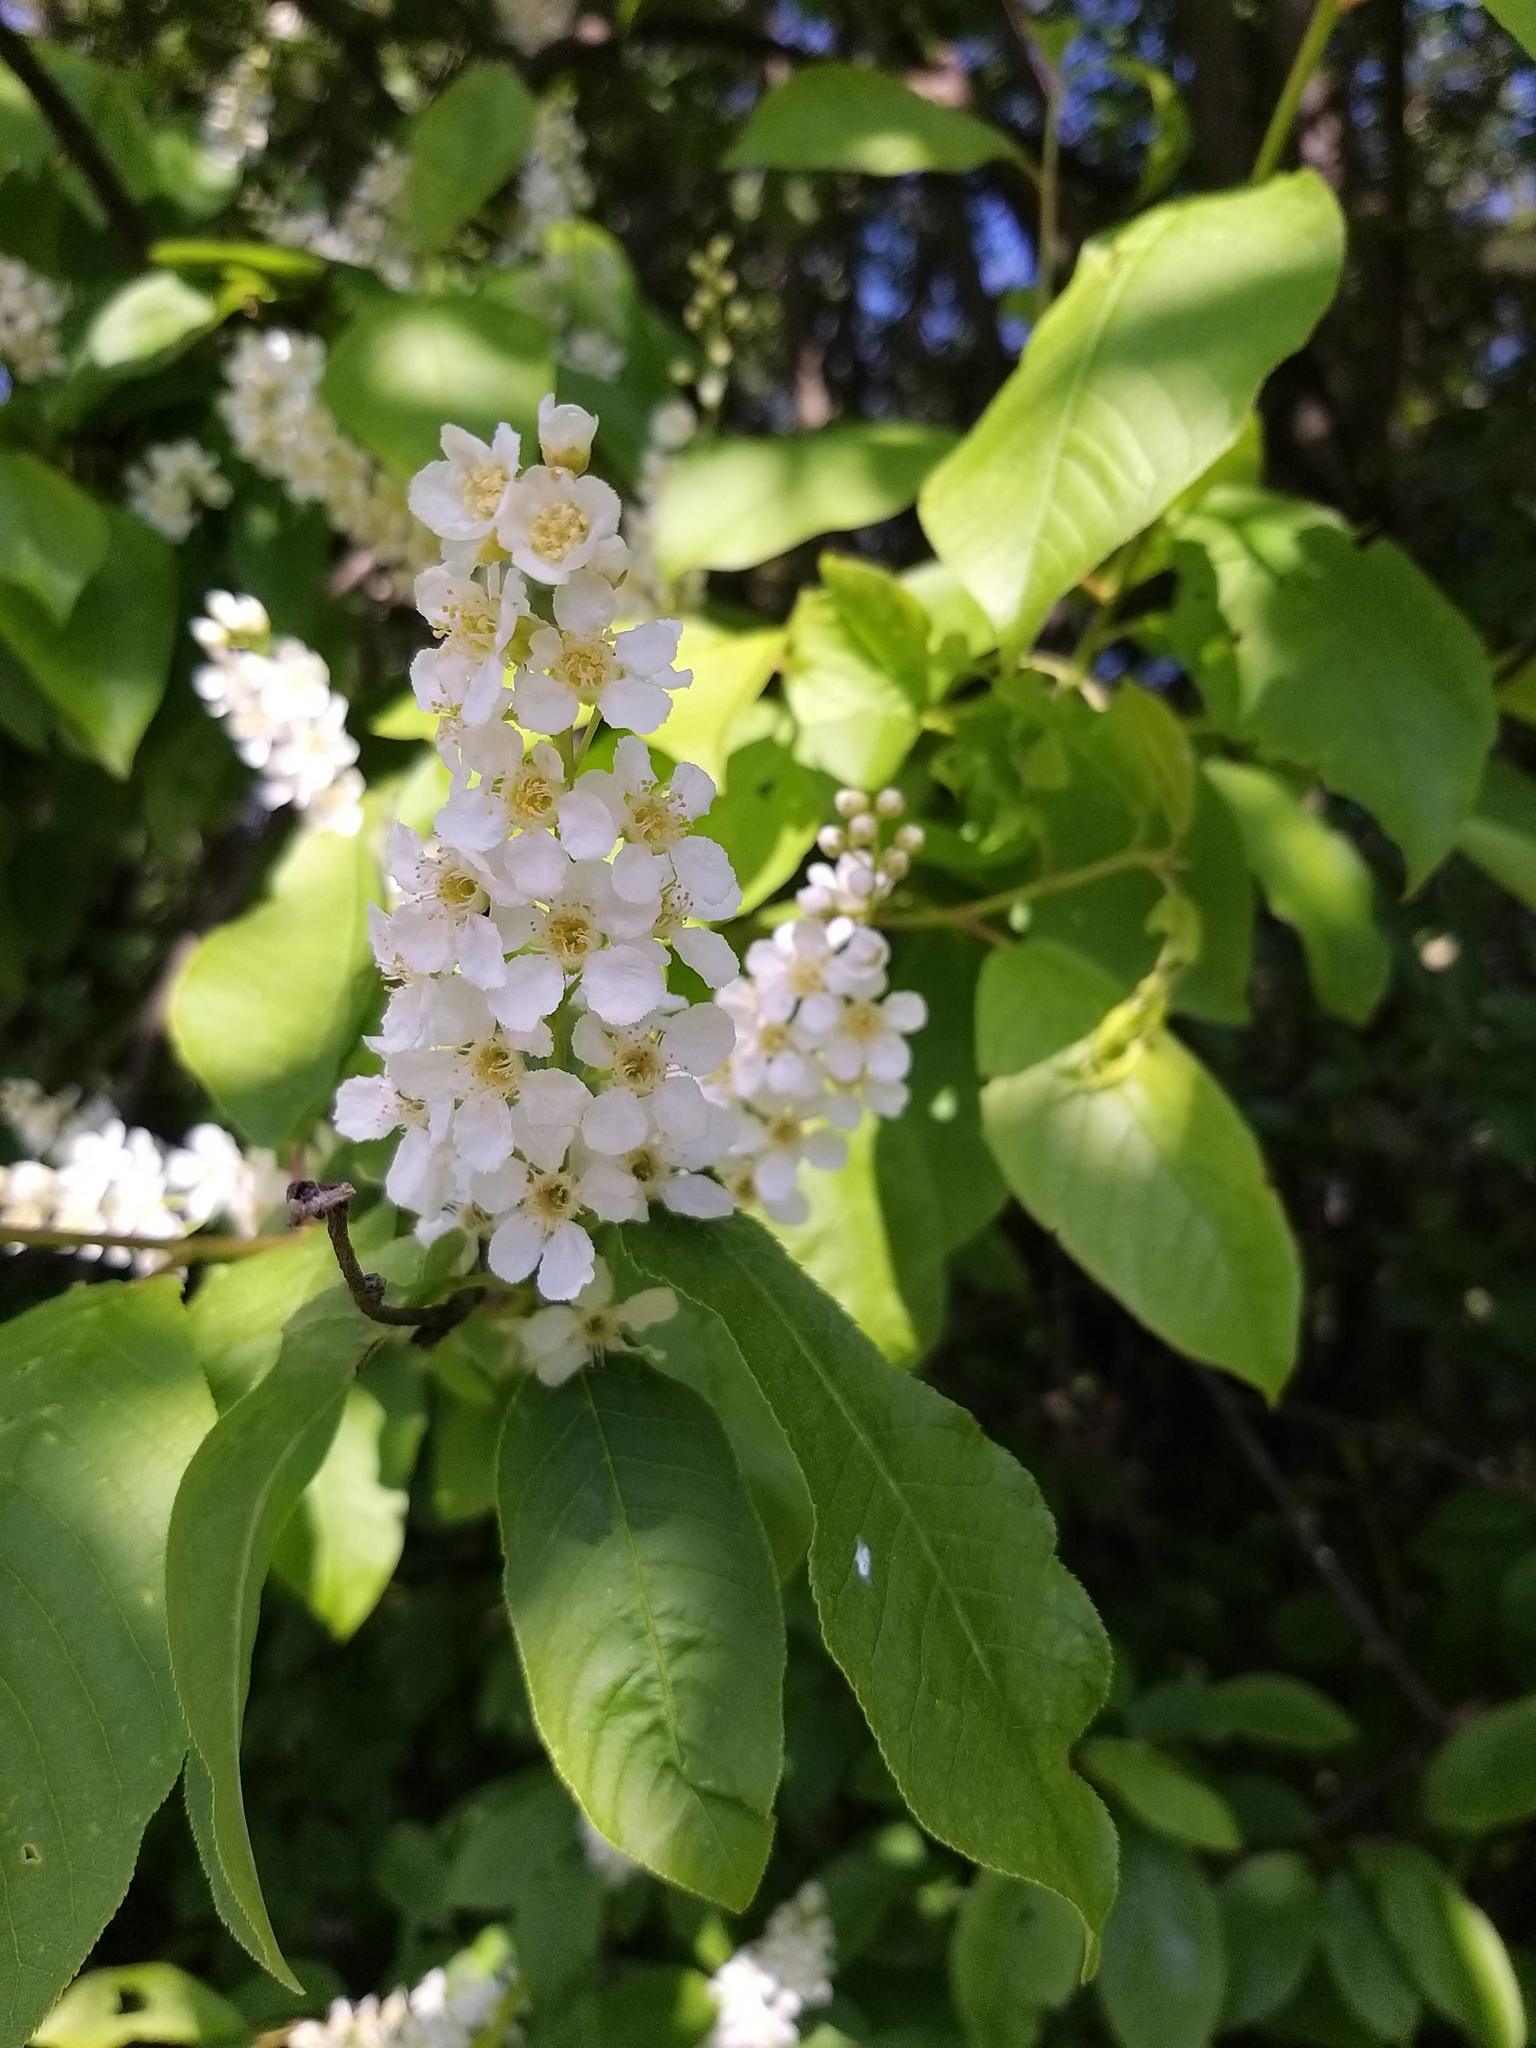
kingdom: Plantae
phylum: Tracheophyta
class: Magnoliopsida
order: Rosales
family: Rosaceae
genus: Prunus
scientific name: Prunus padus
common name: Bird cherry
